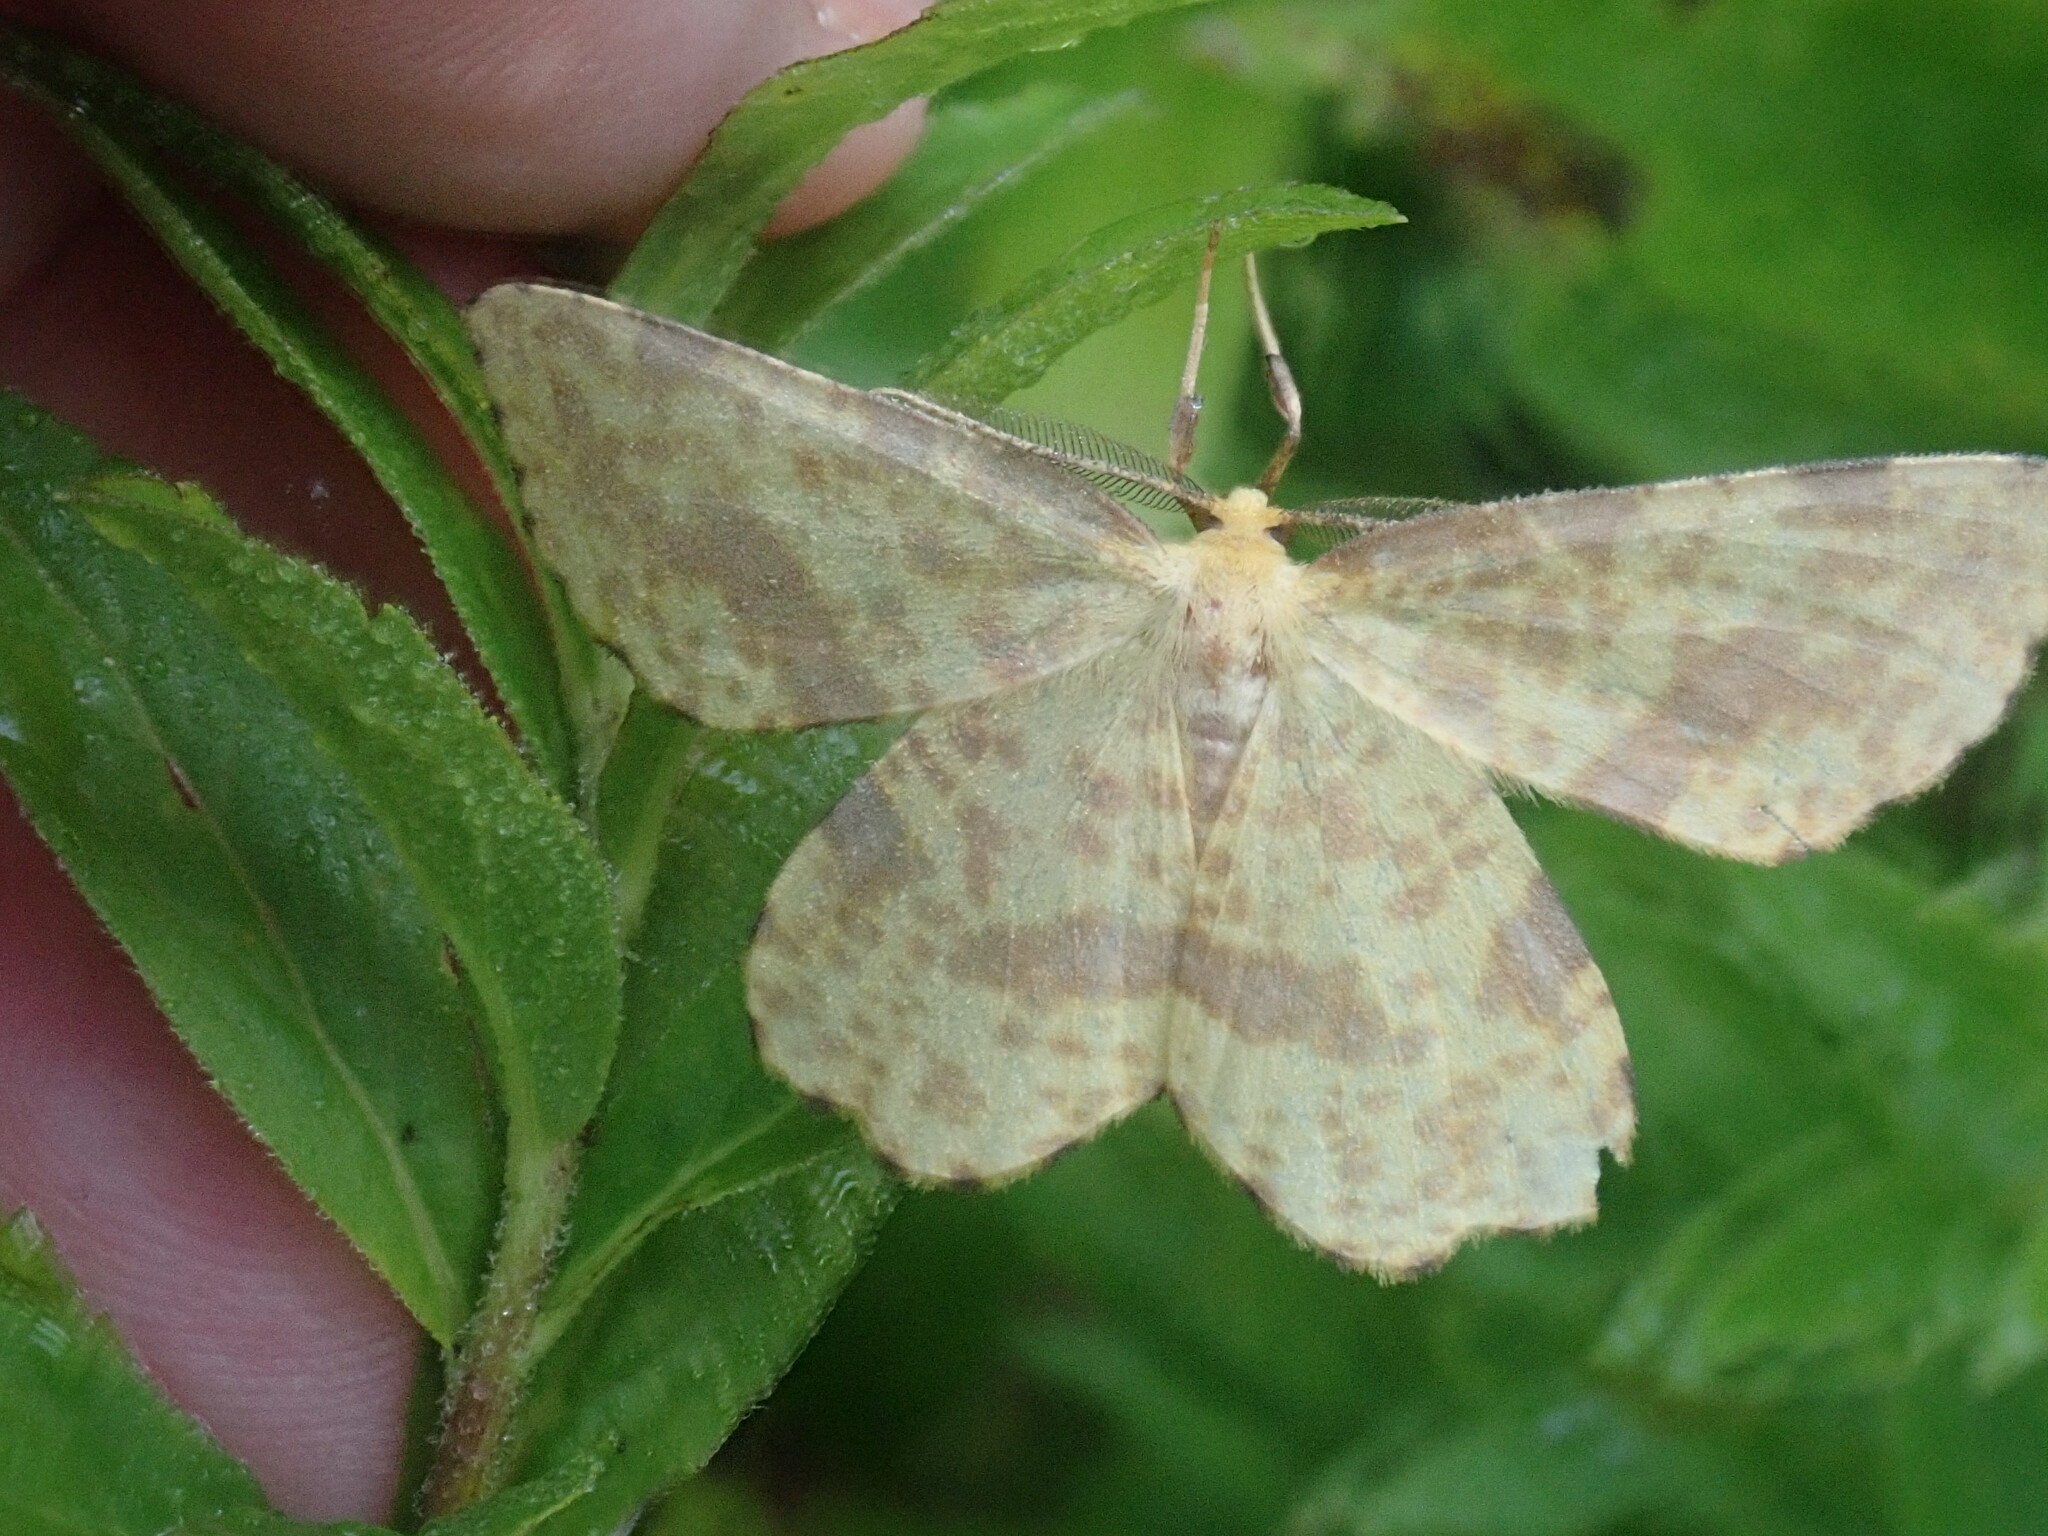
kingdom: Animalia
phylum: Arthropoda
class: Insecta
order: Lepidoptera
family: Geometridae
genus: Xanthotype
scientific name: Xanthotype
